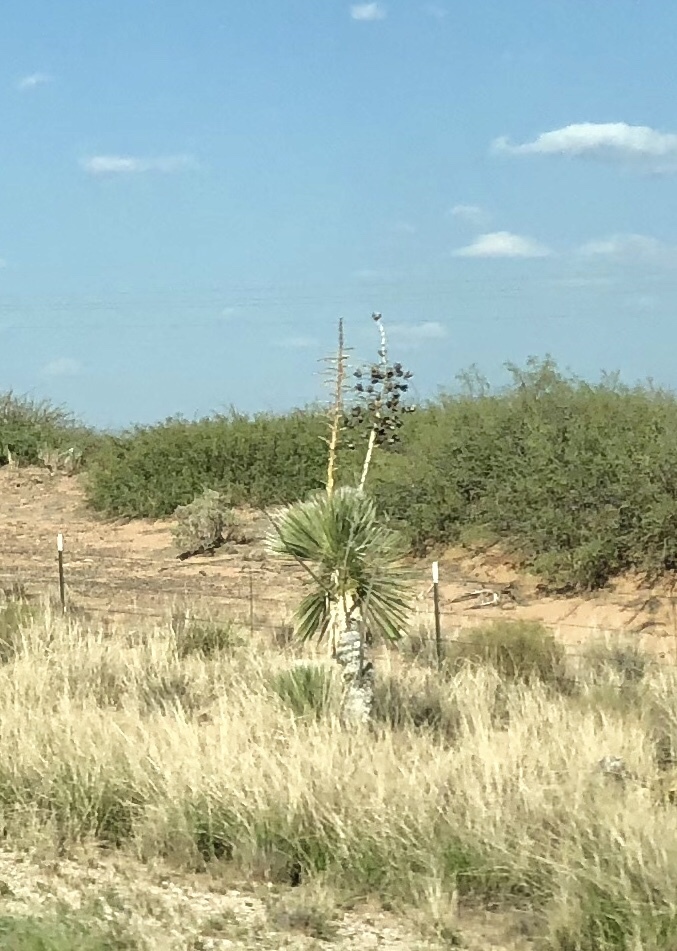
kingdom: Plantae
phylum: Tracheophyta
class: Liliopsida
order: Asparagales
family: Asparagaceae
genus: Yucca
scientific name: Yucca elata
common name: Palmella
